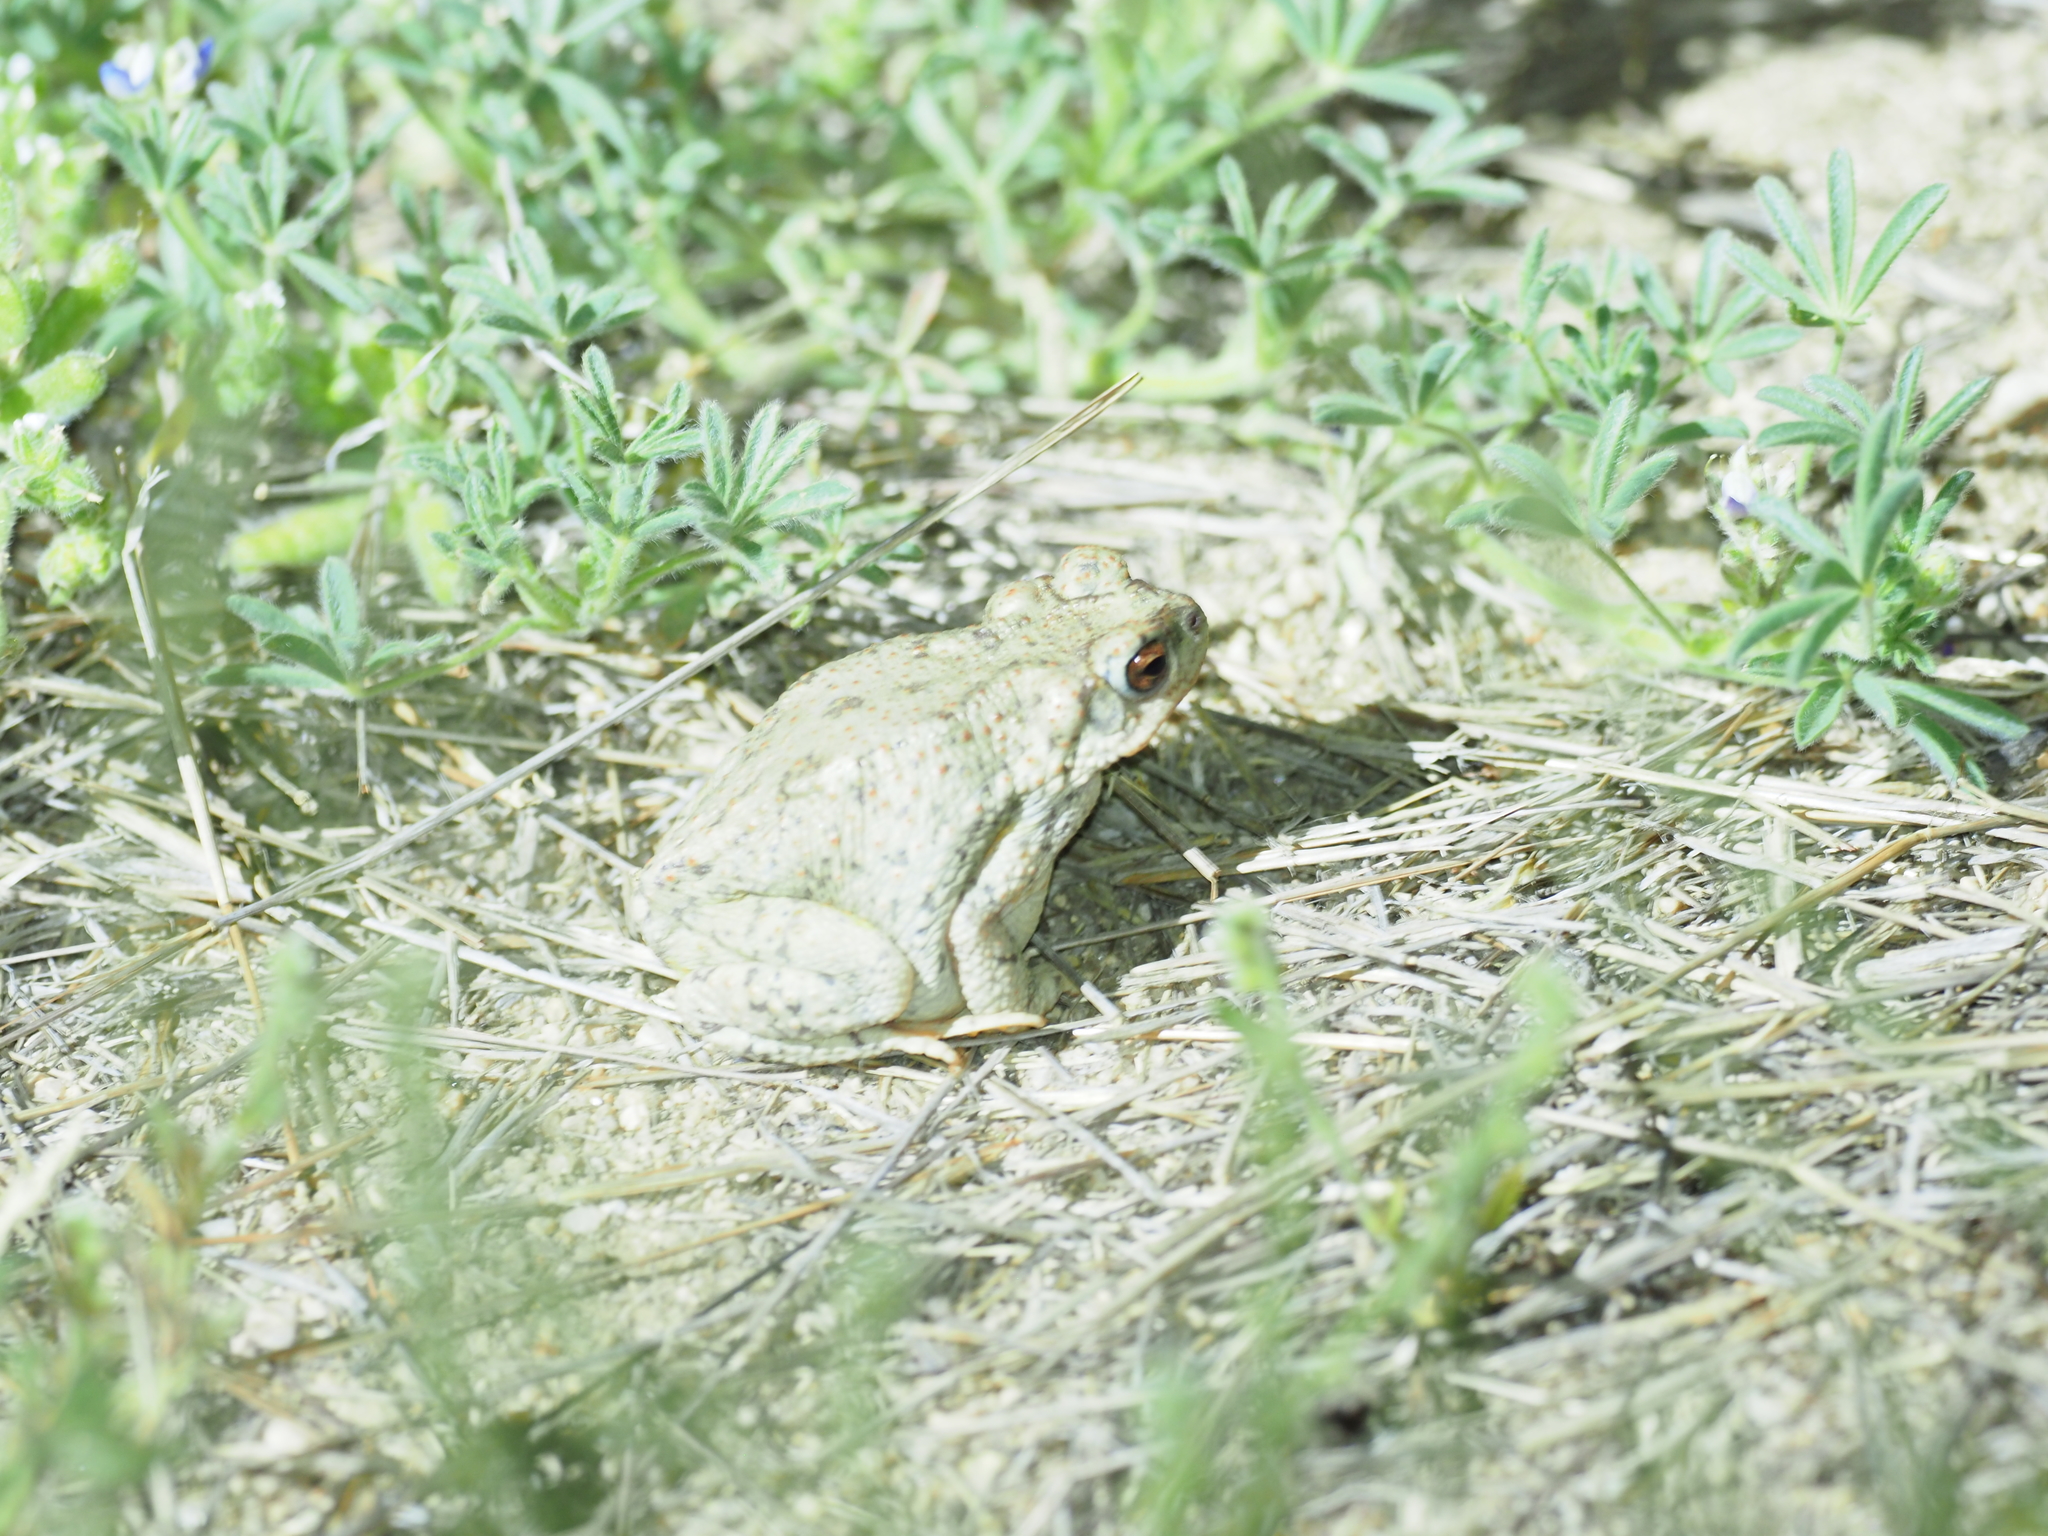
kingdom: Animalia
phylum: Chordata
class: Amphibia
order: Anura
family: Bufonidae
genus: Anaxyrus
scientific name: Anaxyrus punctatus
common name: Red-spotted toad
